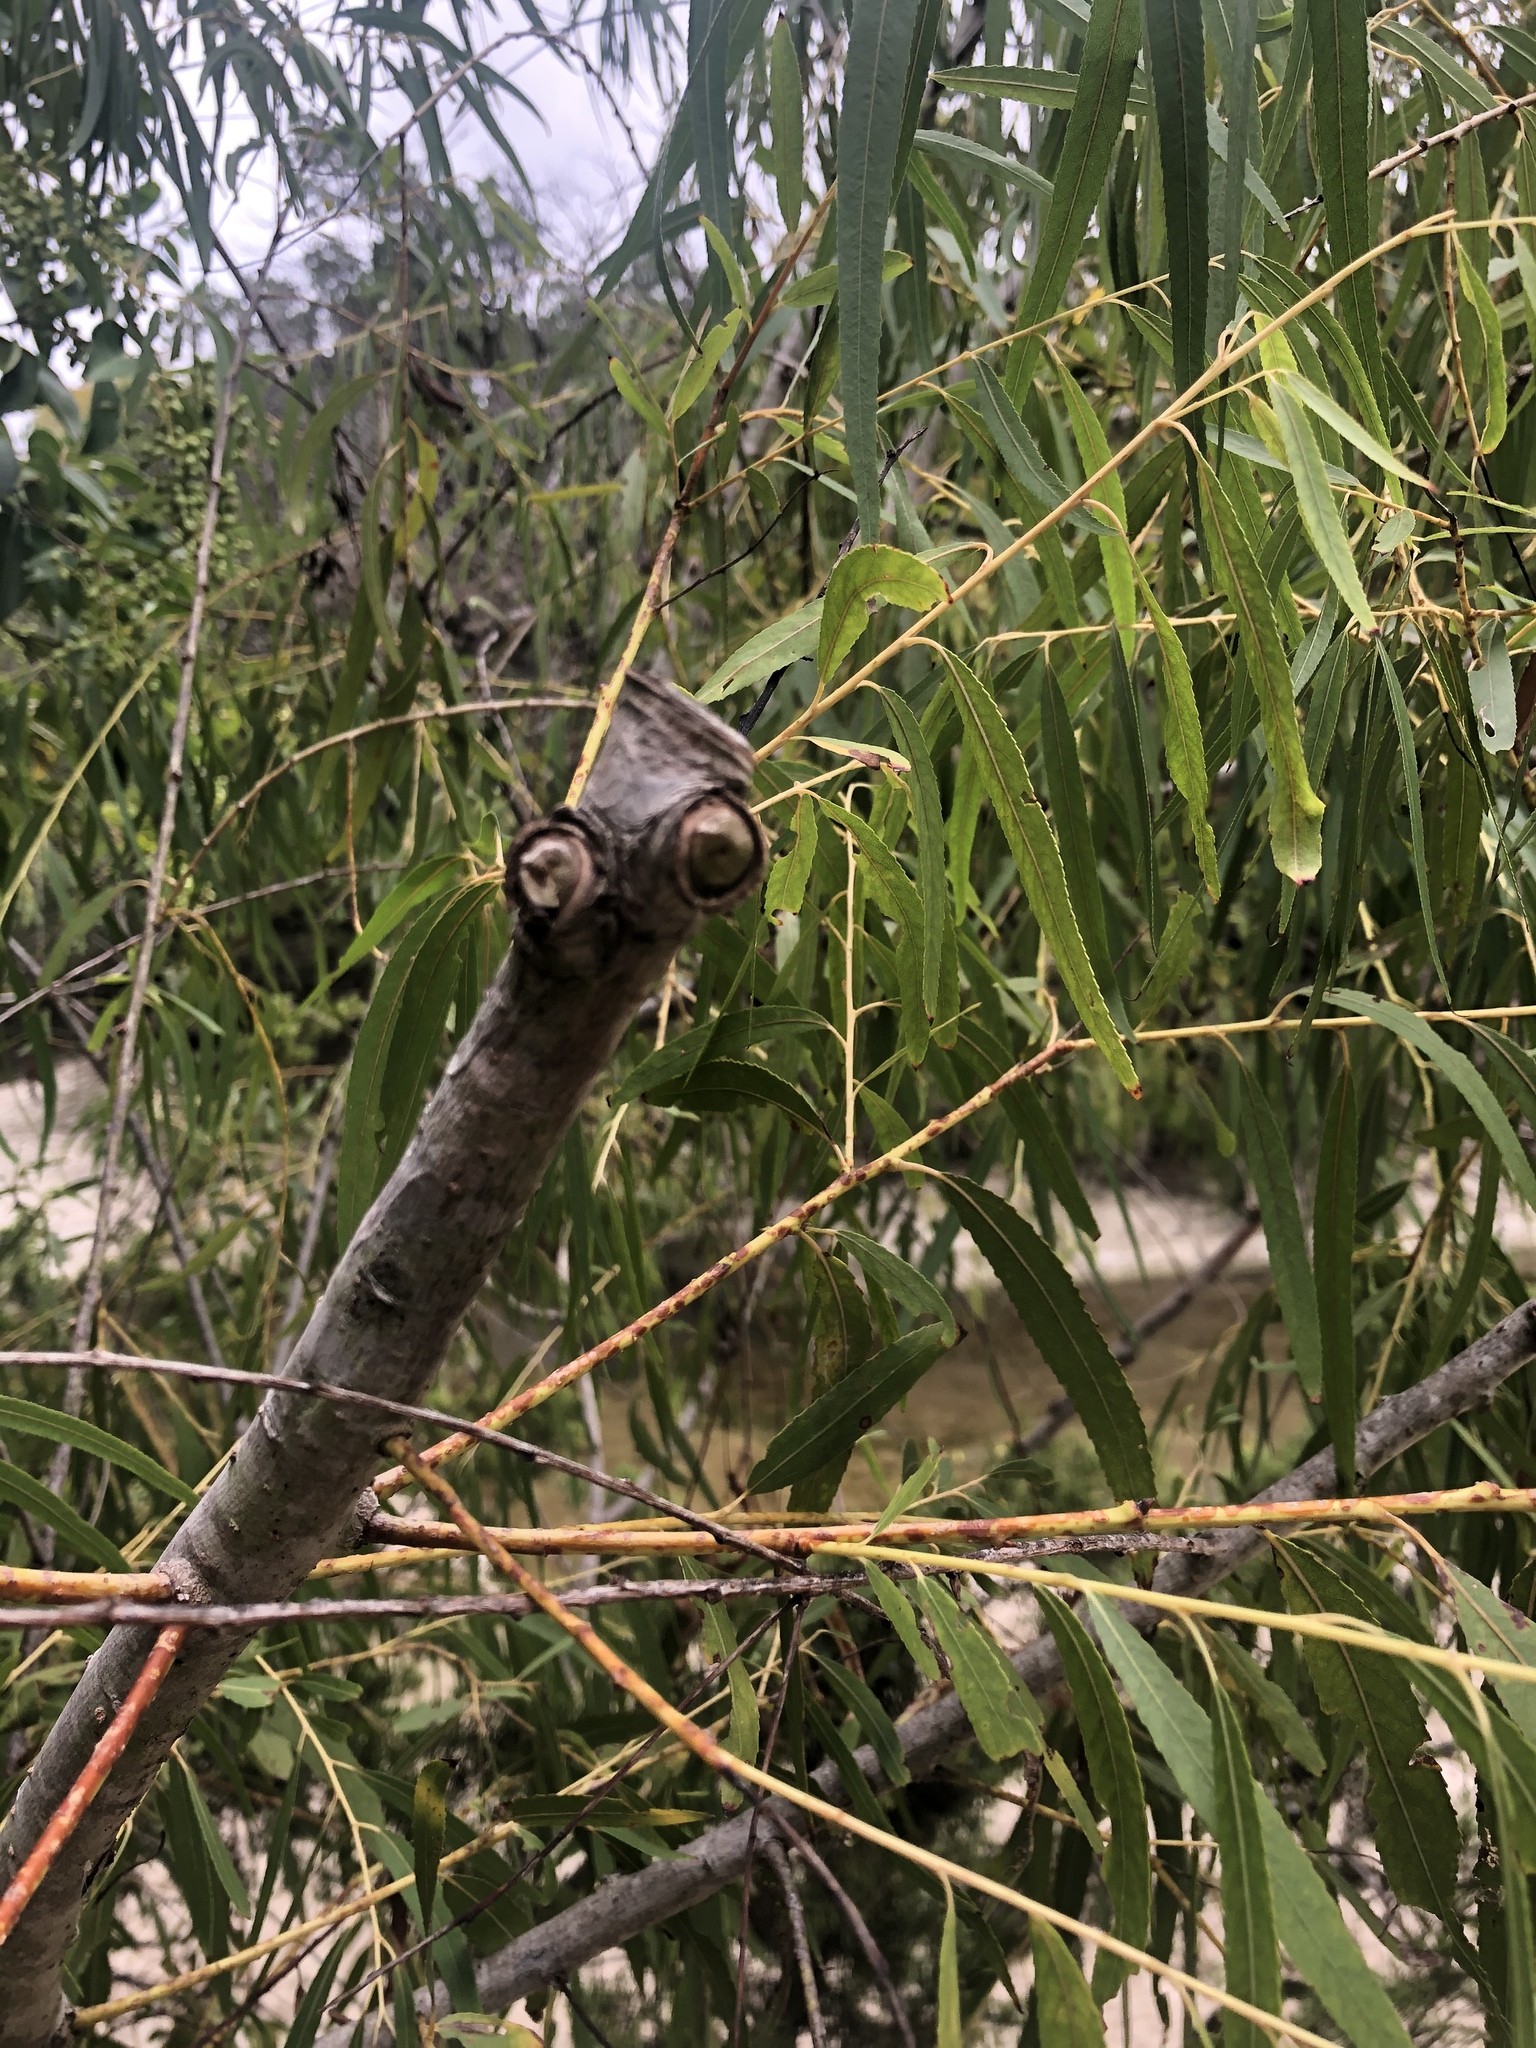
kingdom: Plantae
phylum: Tracheophyta
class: Magnoliopsida
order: Malpighiales
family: Salicaceae
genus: Salix
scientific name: Salix nigra
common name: Black willow
